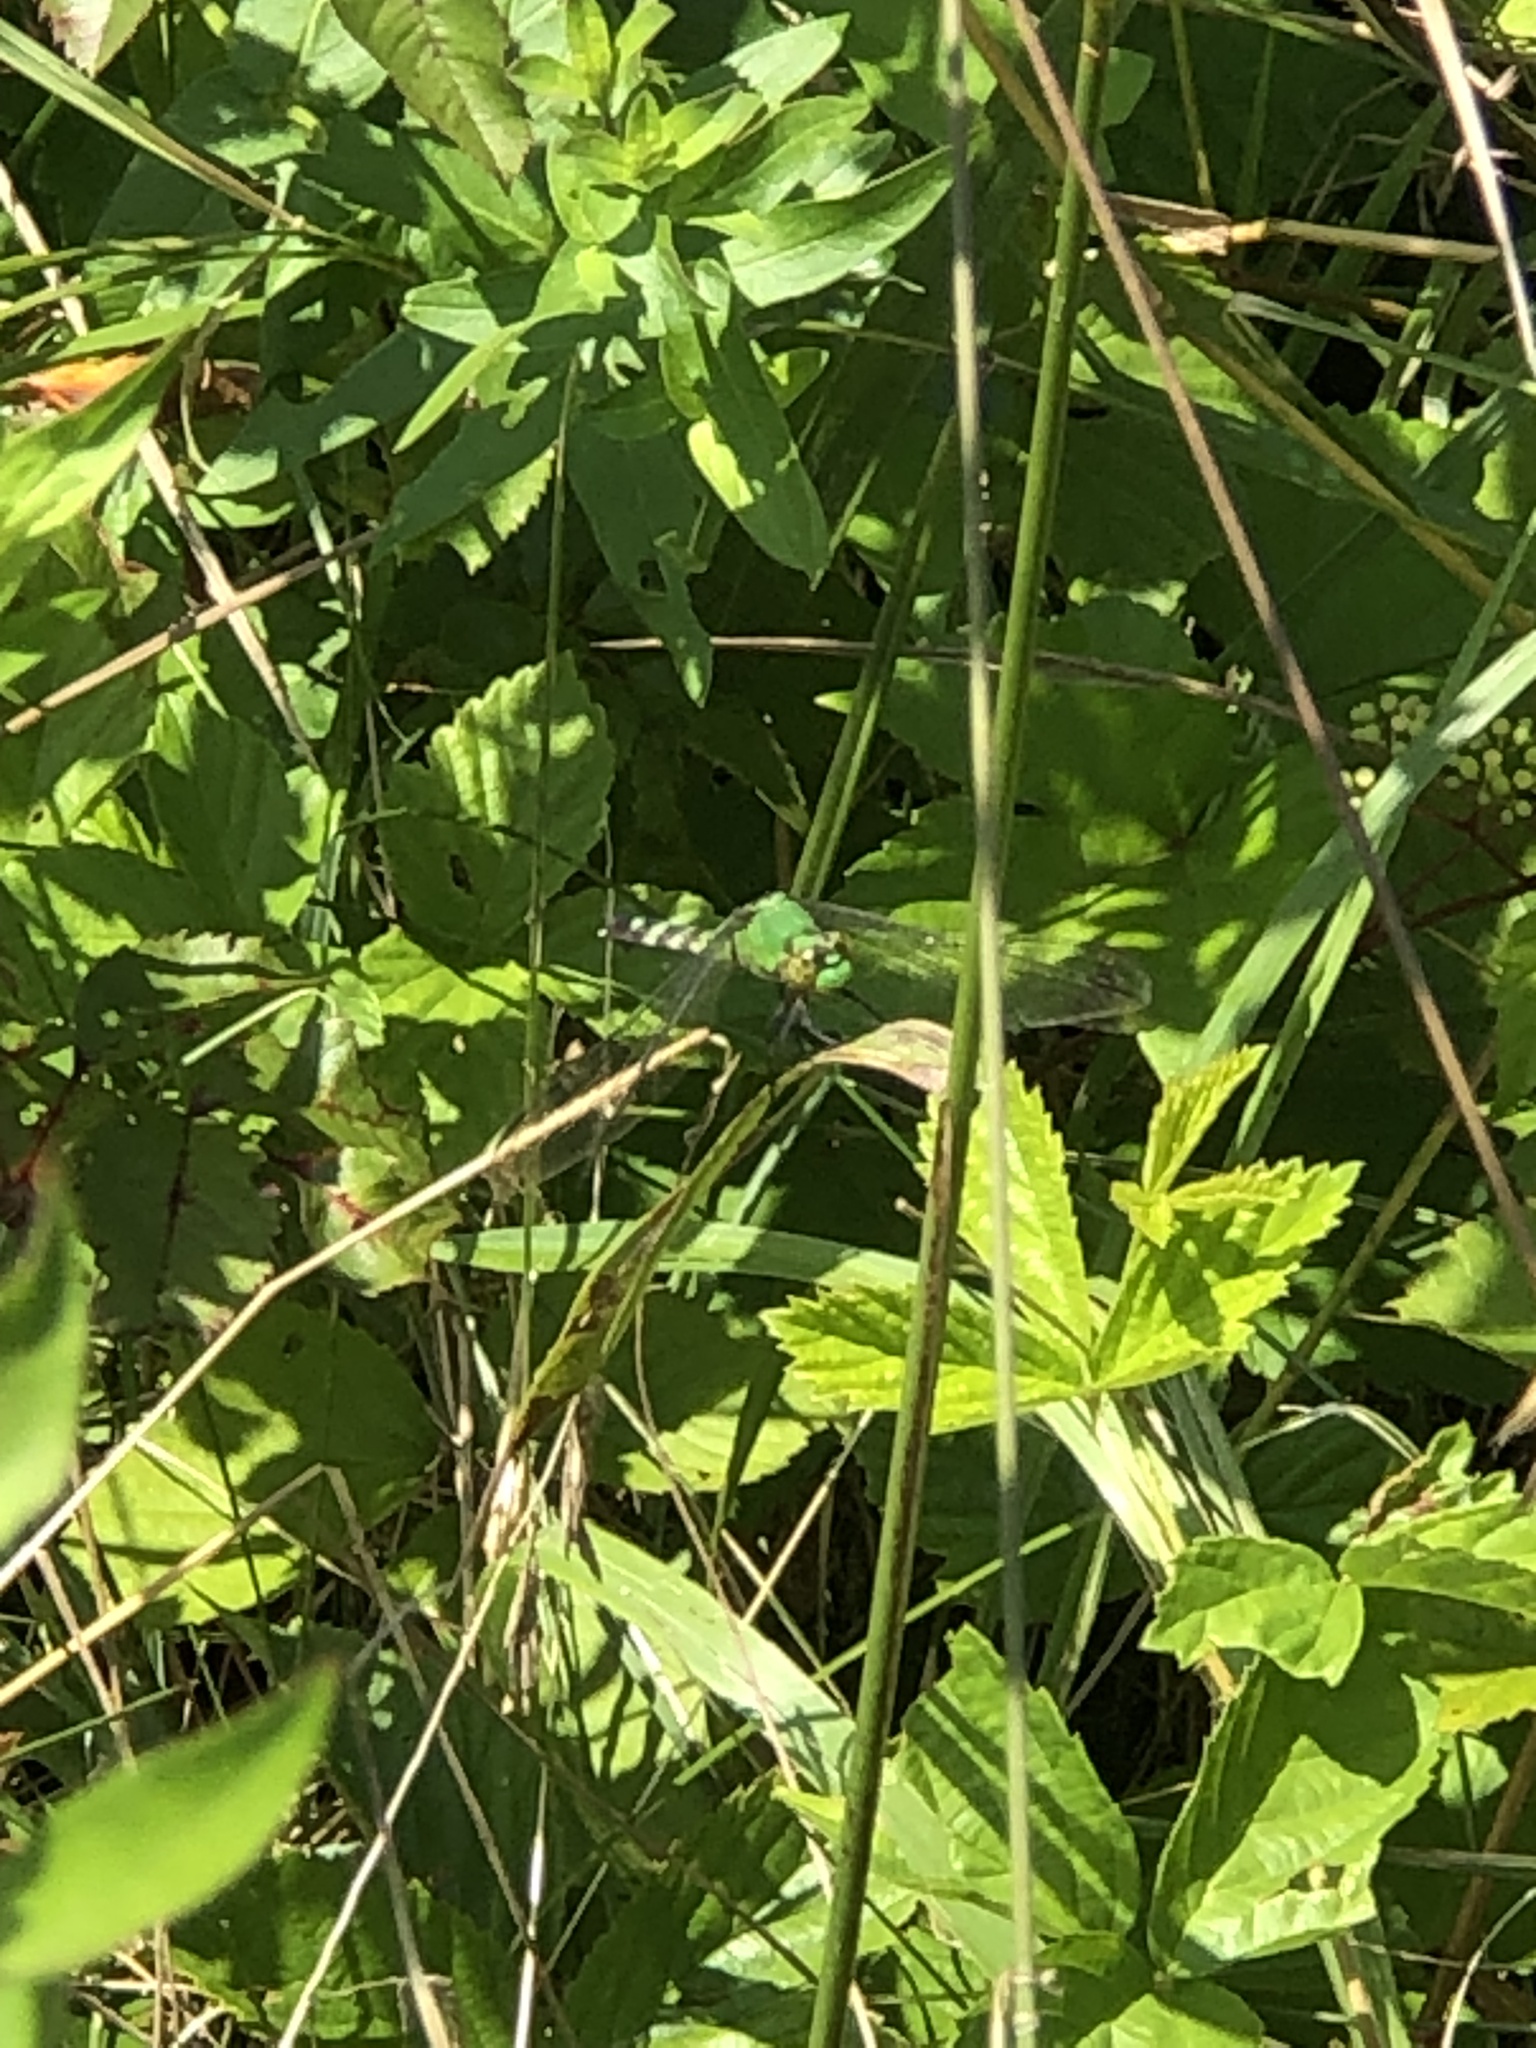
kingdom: Animalia
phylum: Arthropoda
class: Insecta
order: Odonata
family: Libellulidae
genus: Erythemis
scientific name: Erythemis simplicicollis
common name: Eastern pondhawk
